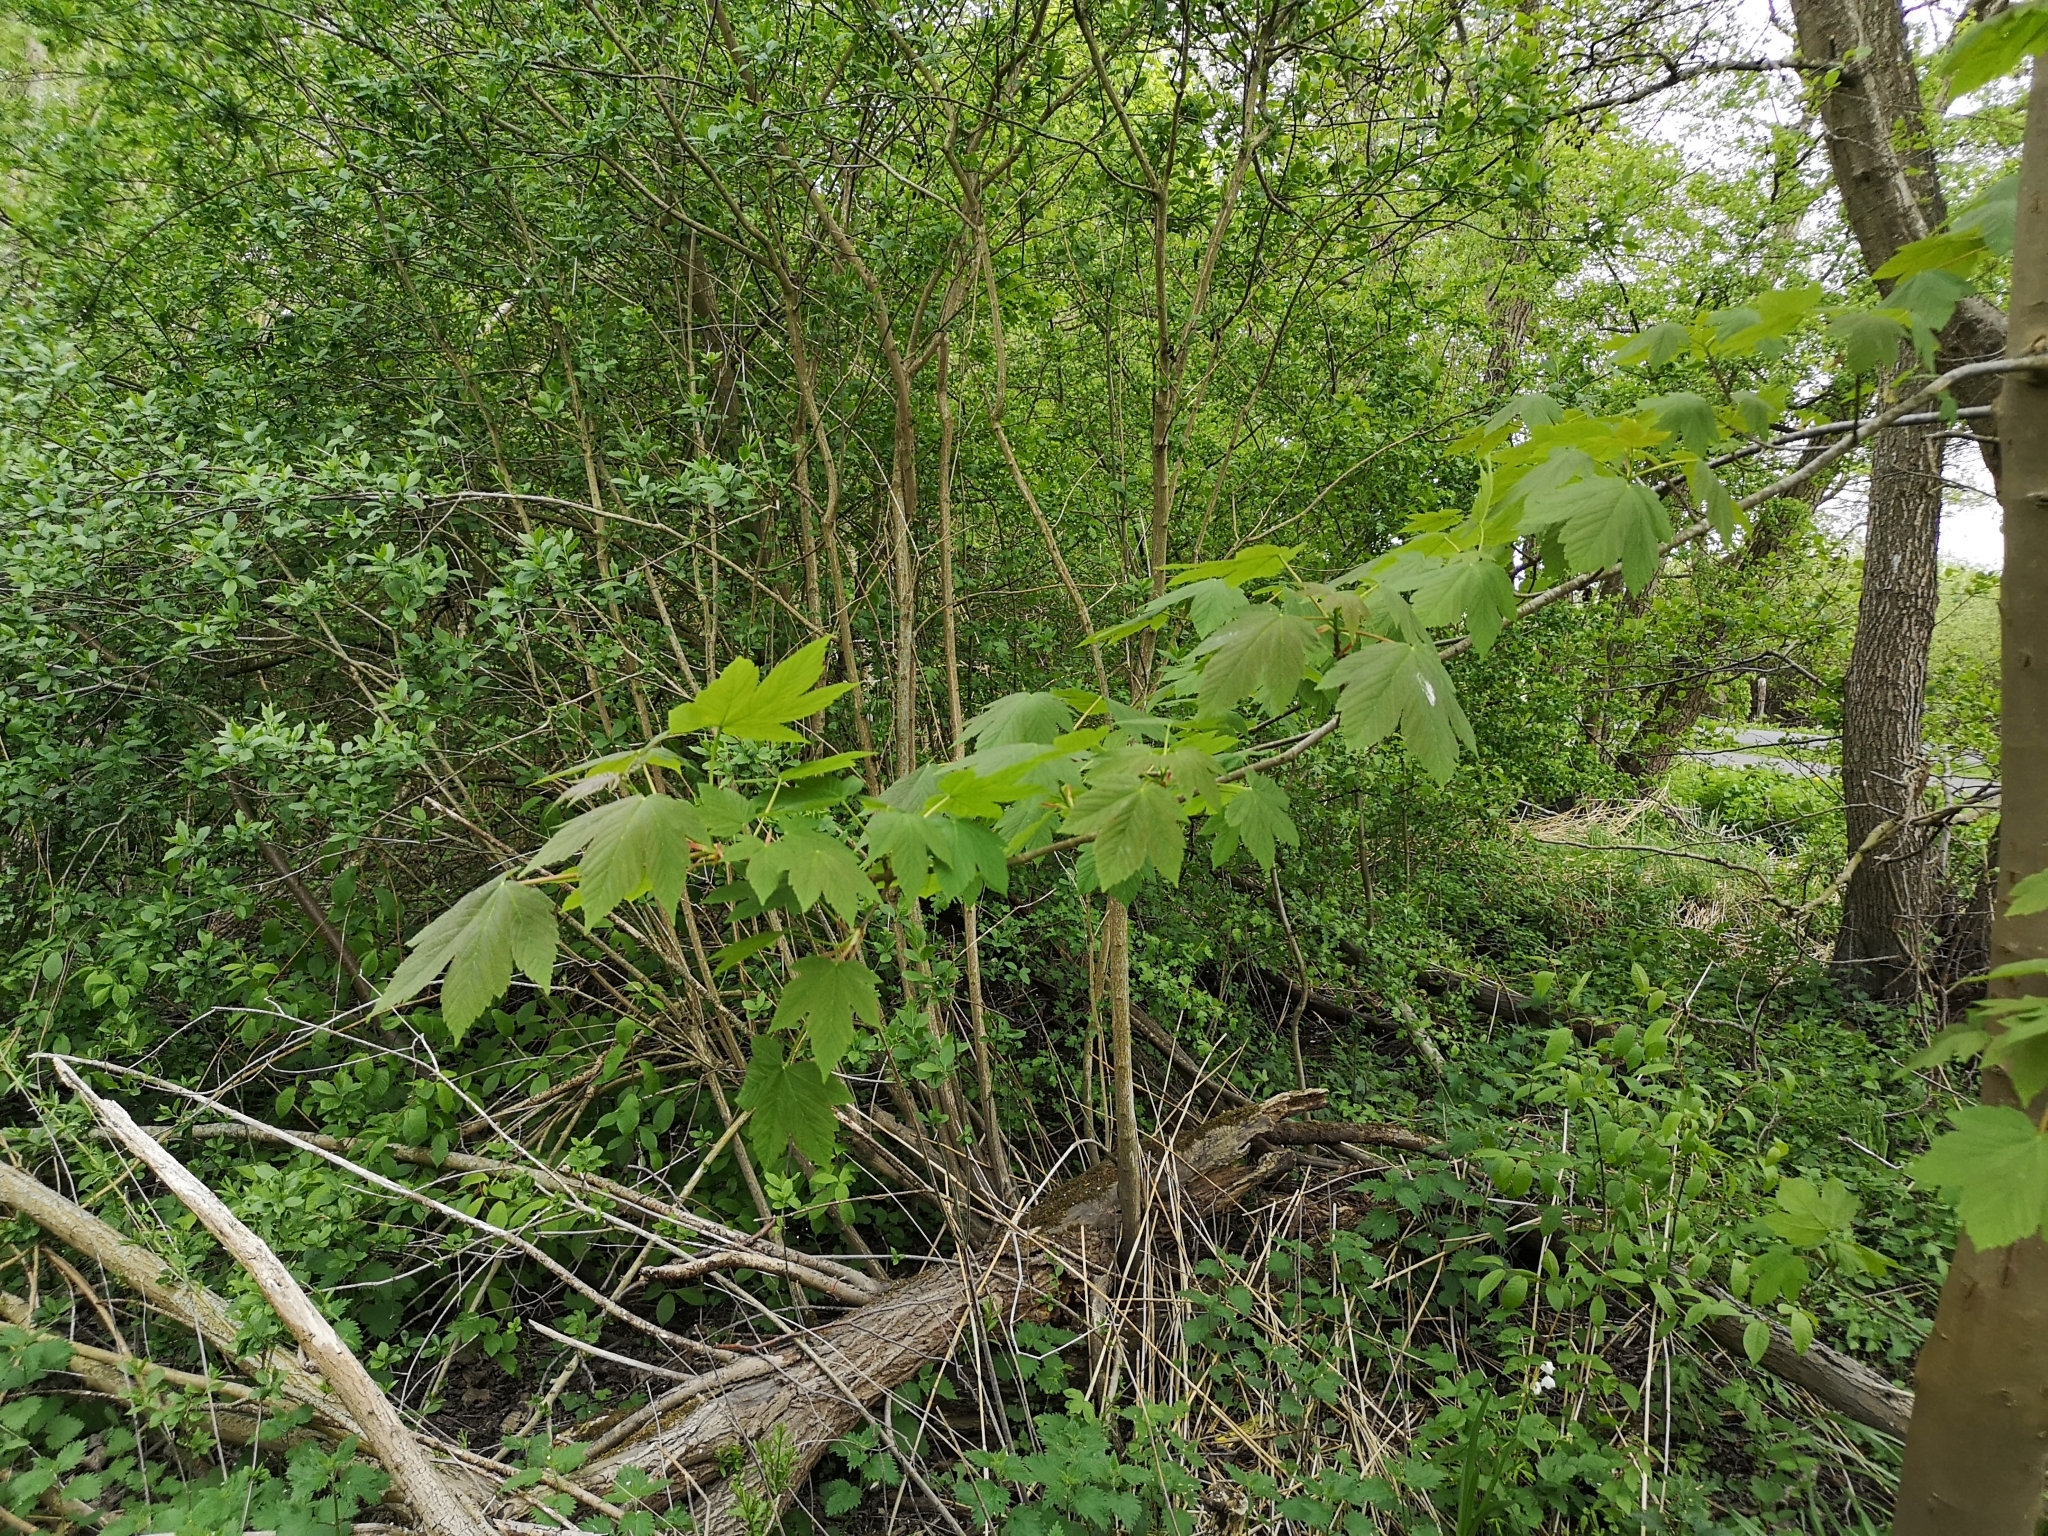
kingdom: Plantae
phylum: Tracheophyta
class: Magnoliopsida
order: Sapindales
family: Sapindaceae
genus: Acer
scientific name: Acer pseudoplatanus
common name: Sycamore
